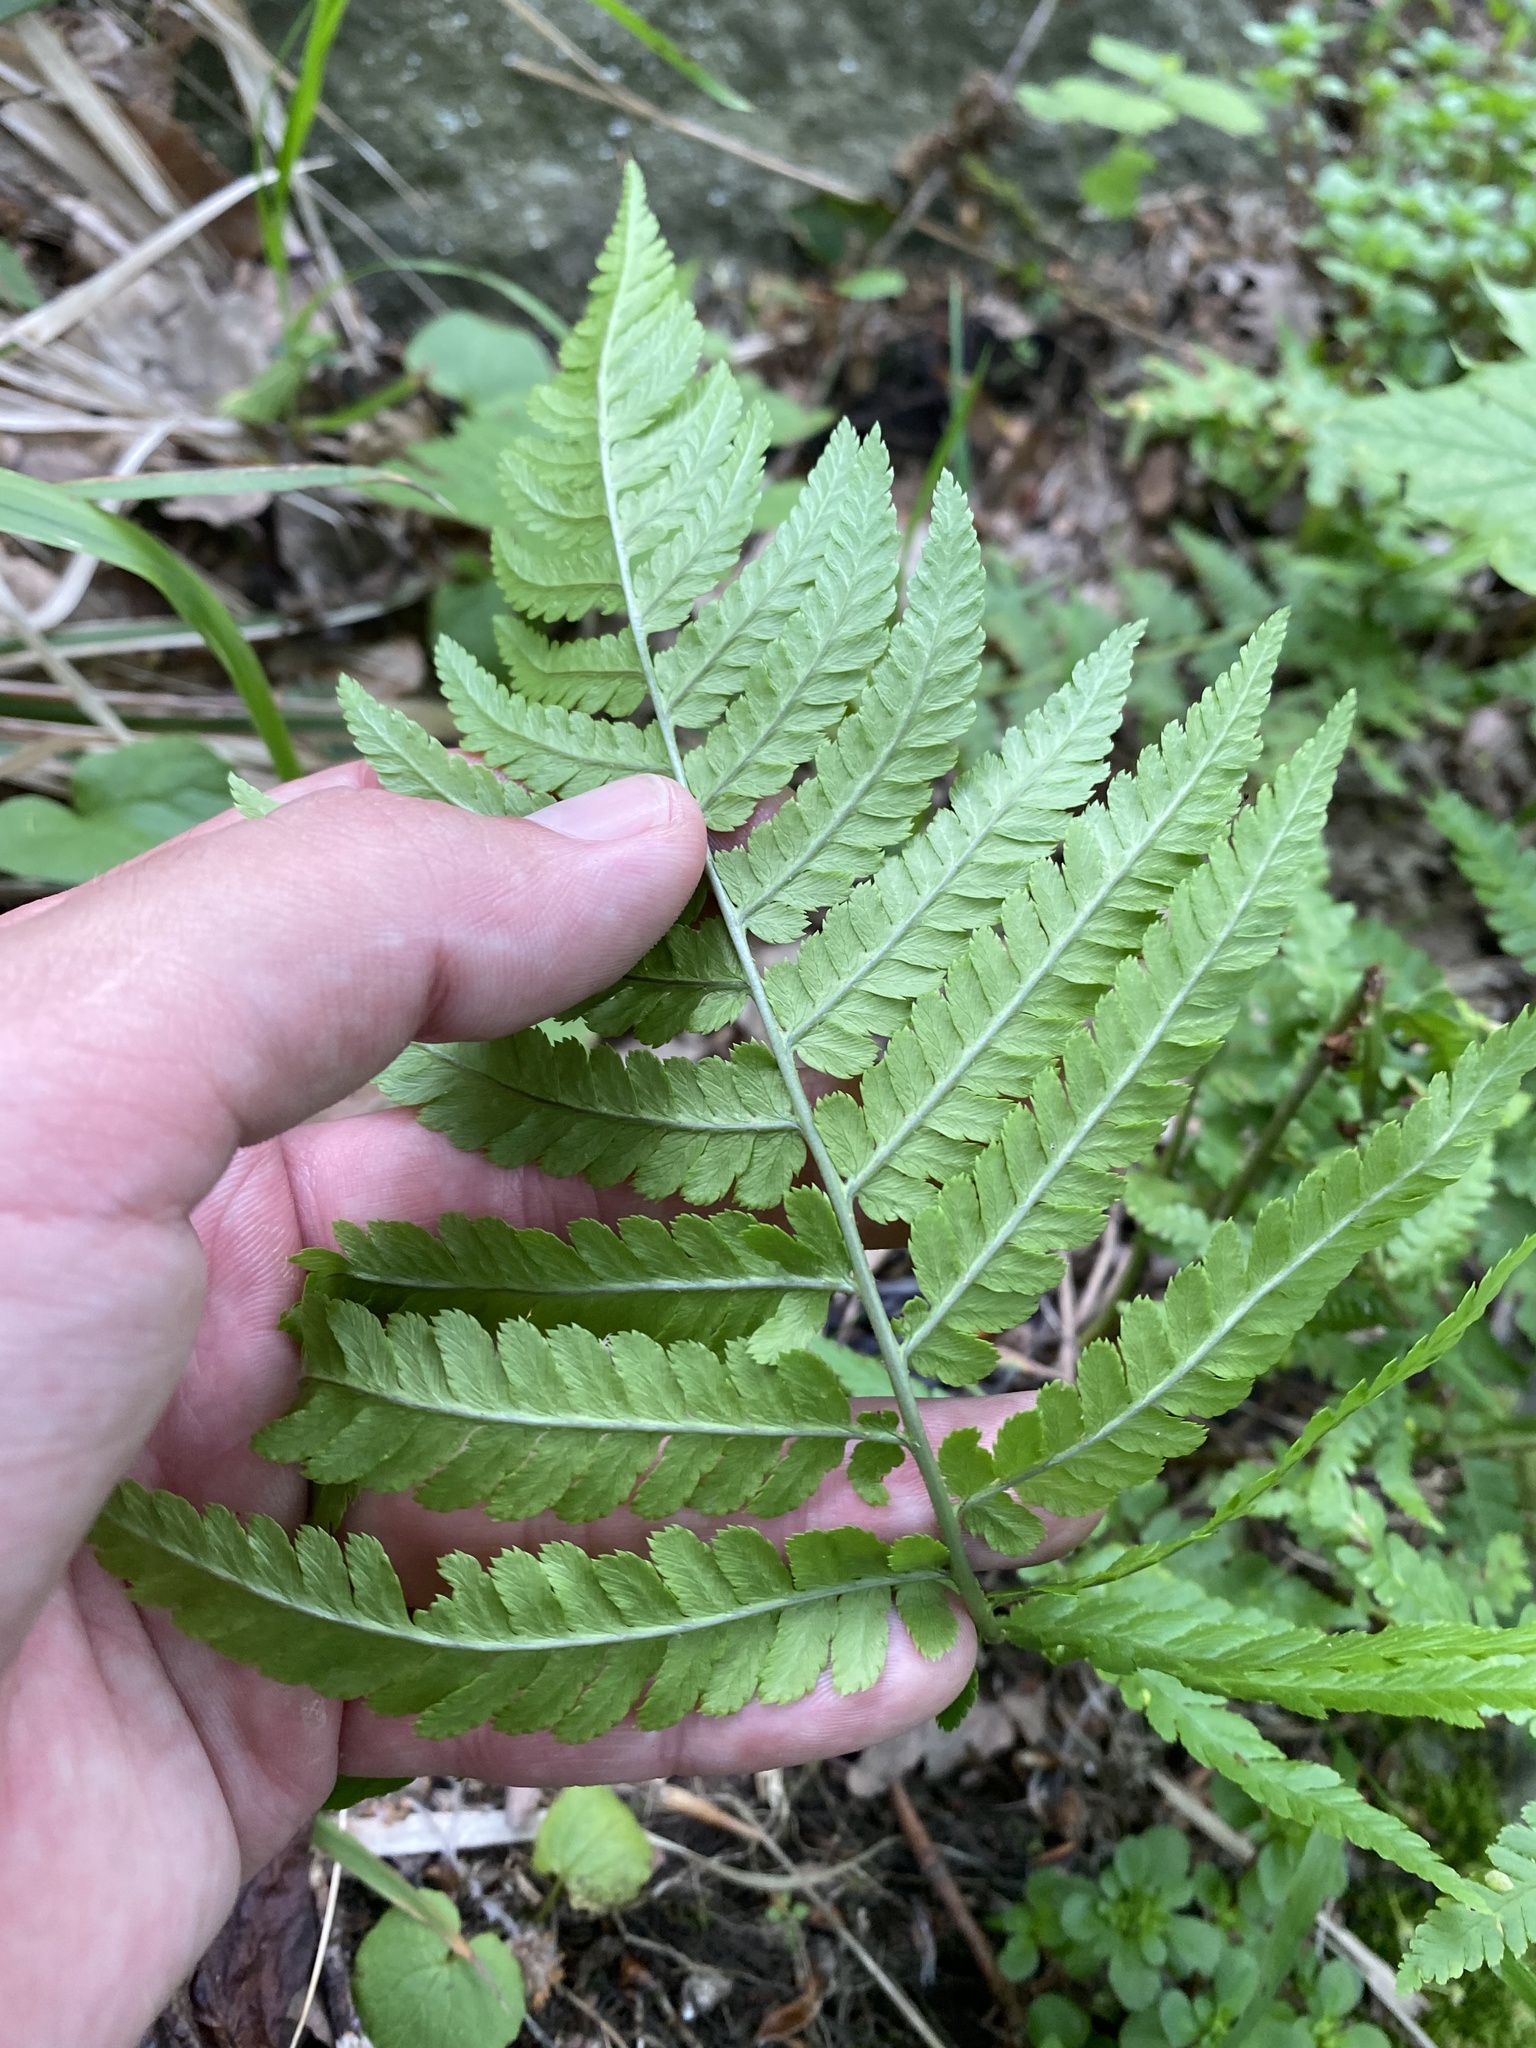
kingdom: Plantae
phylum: Tracheophyta
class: Polypodiopsida
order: Polypodiales
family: Dryopteridaceae
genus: Dryopteris
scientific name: Dryopteris filix-mas
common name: Male fern
